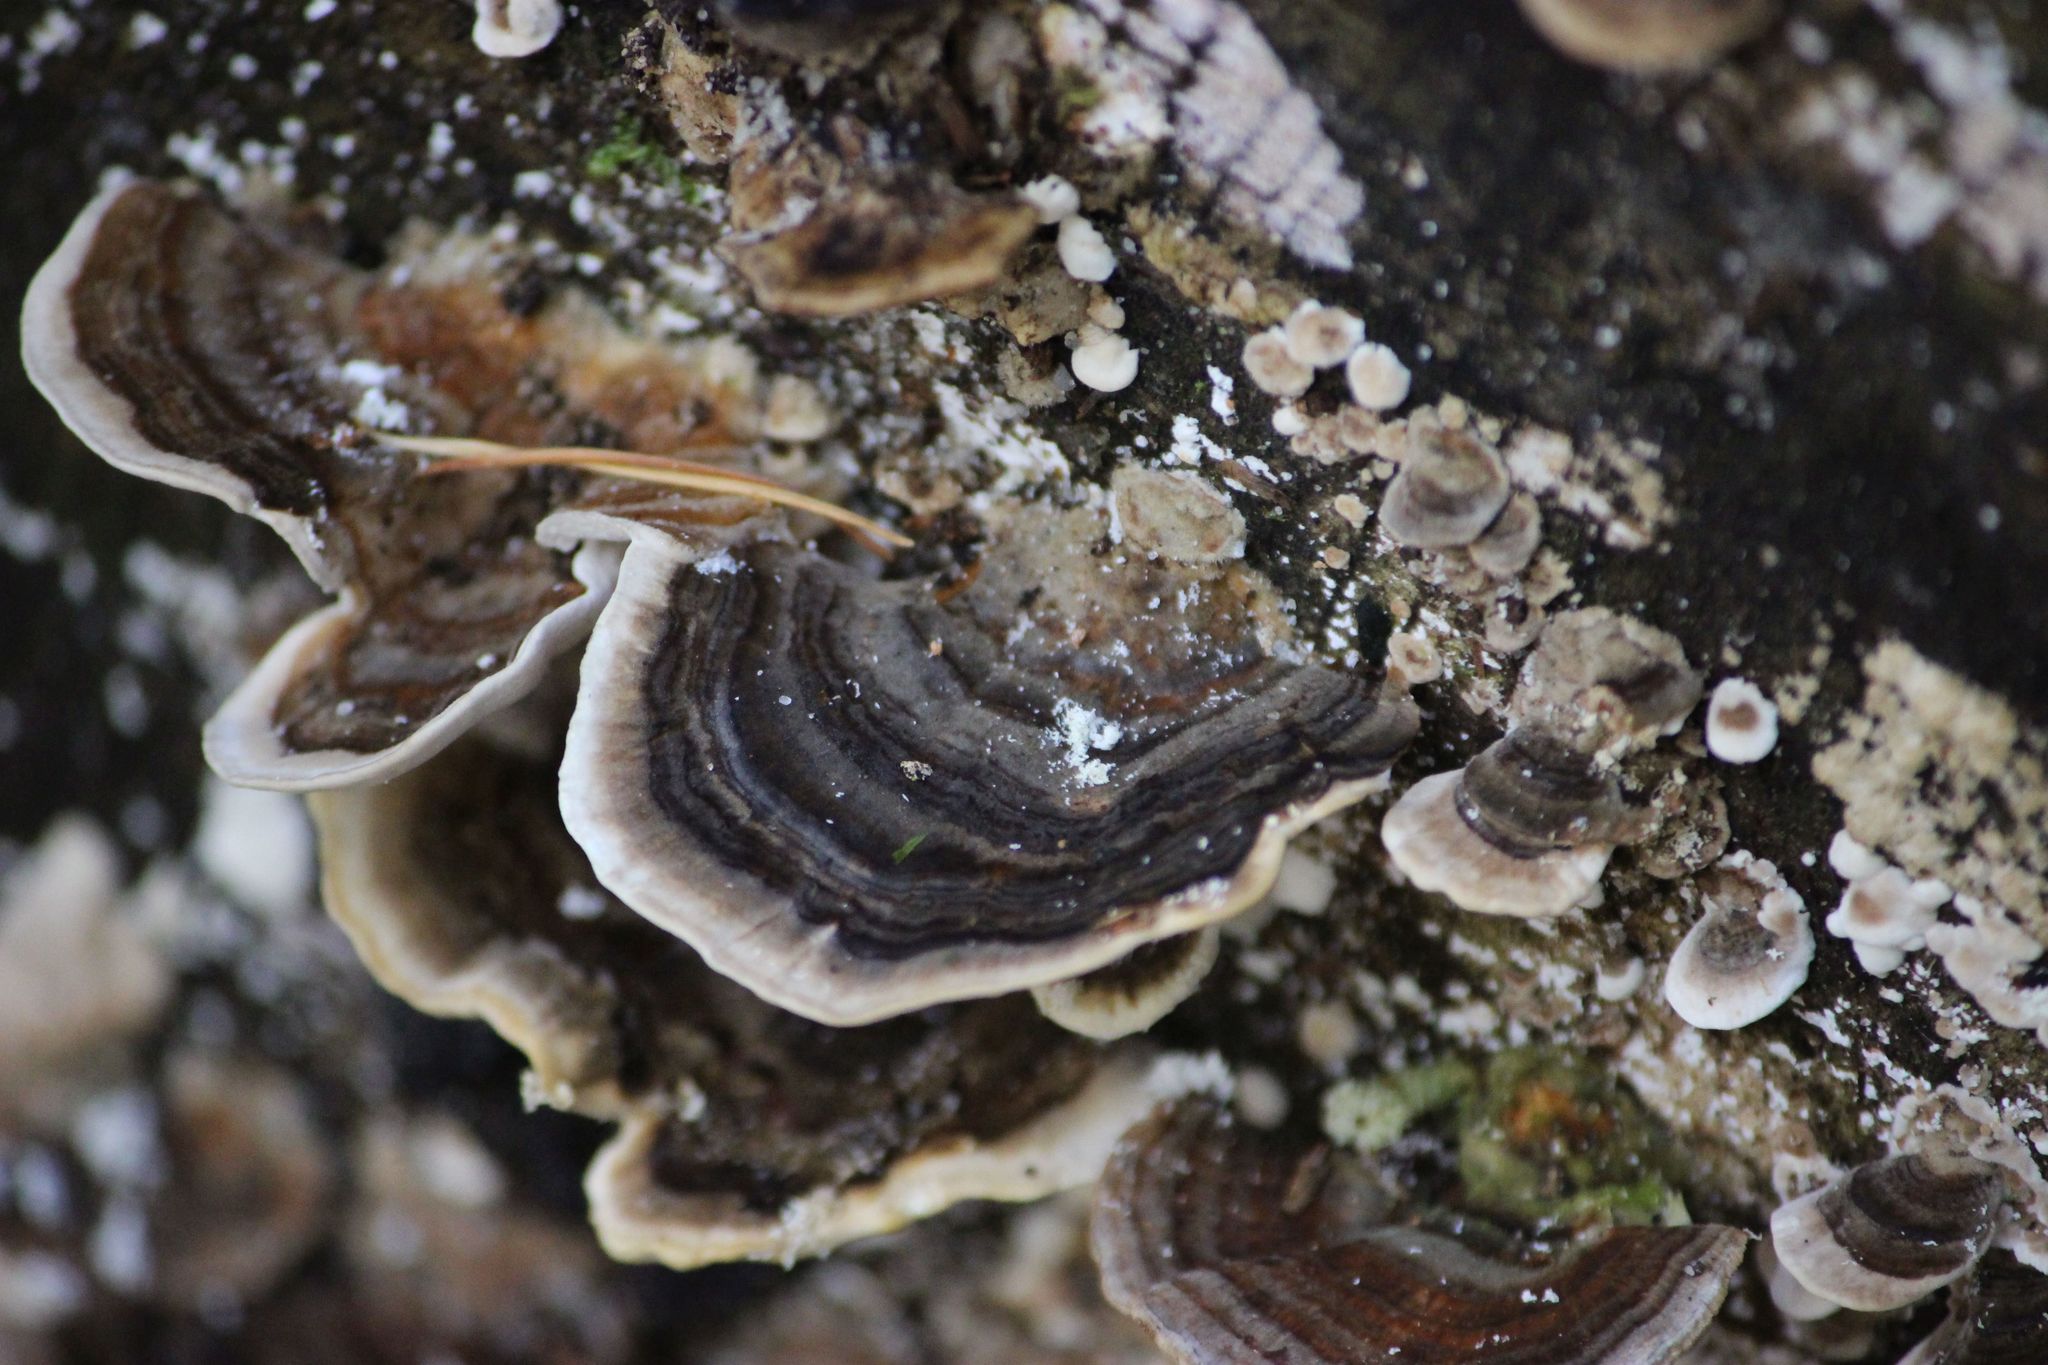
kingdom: Fungi
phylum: Basidiomycota
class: Agaricomycetes
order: Polyporales
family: Polyporaceae
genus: Trametes
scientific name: Trametes versicolor
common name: Turkeytail
